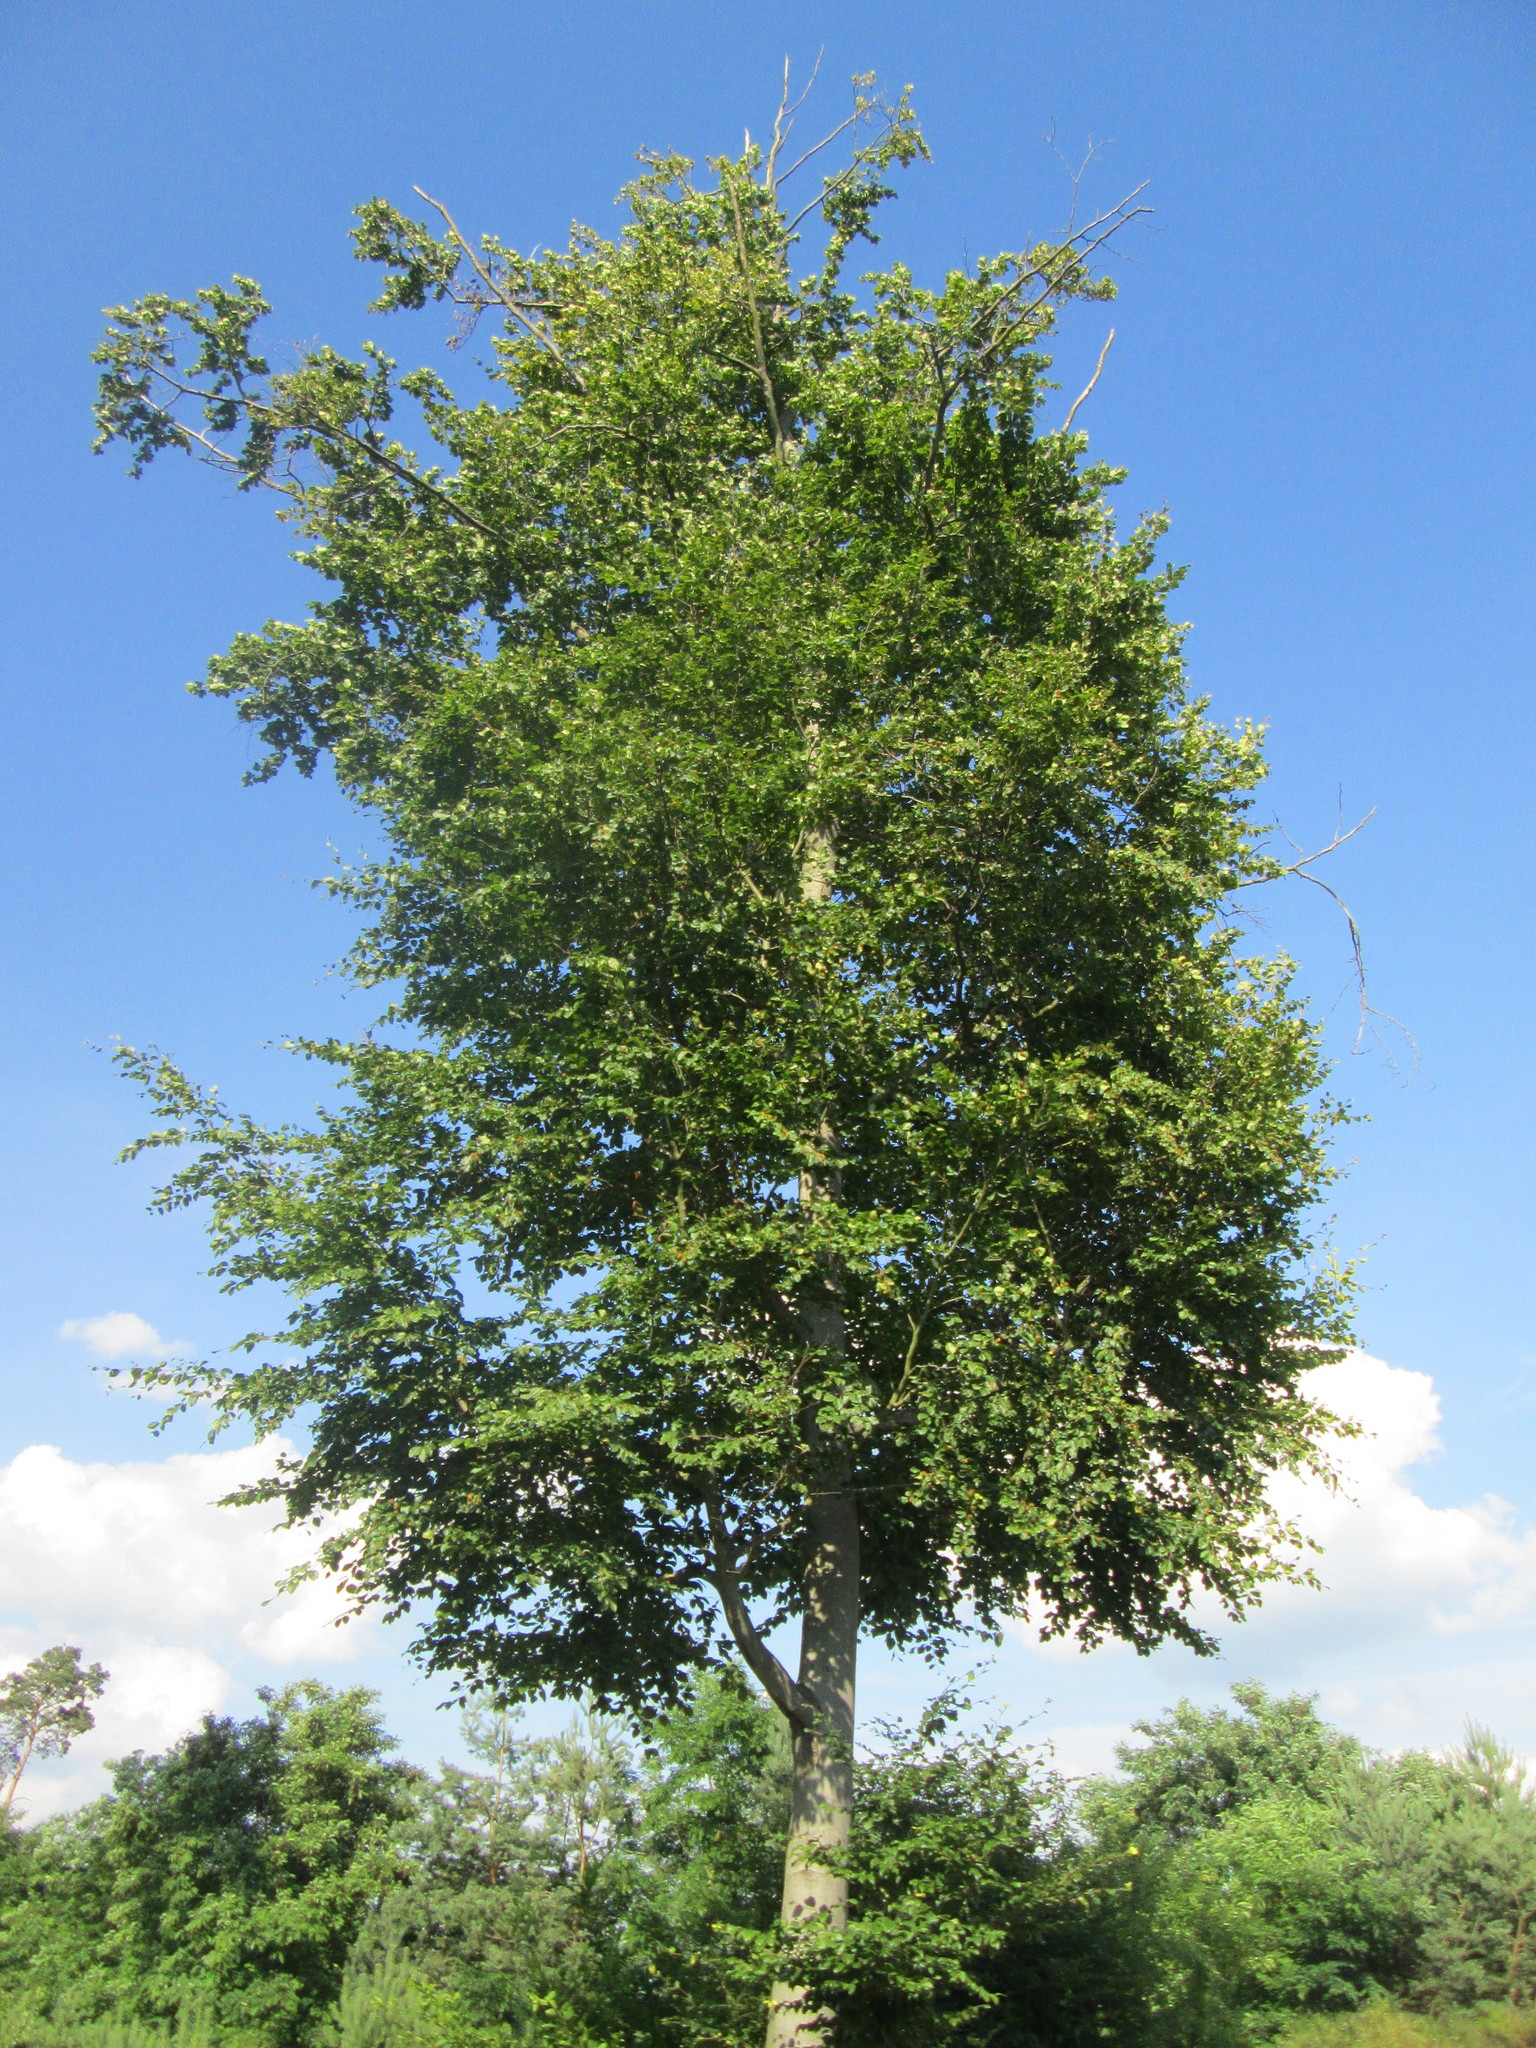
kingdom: Plantae
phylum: Tracheophyta
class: Magnoliopsida
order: Fagales
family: Fagaceae
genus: Fagus
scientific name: Fagus sylvatica
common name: Beech
